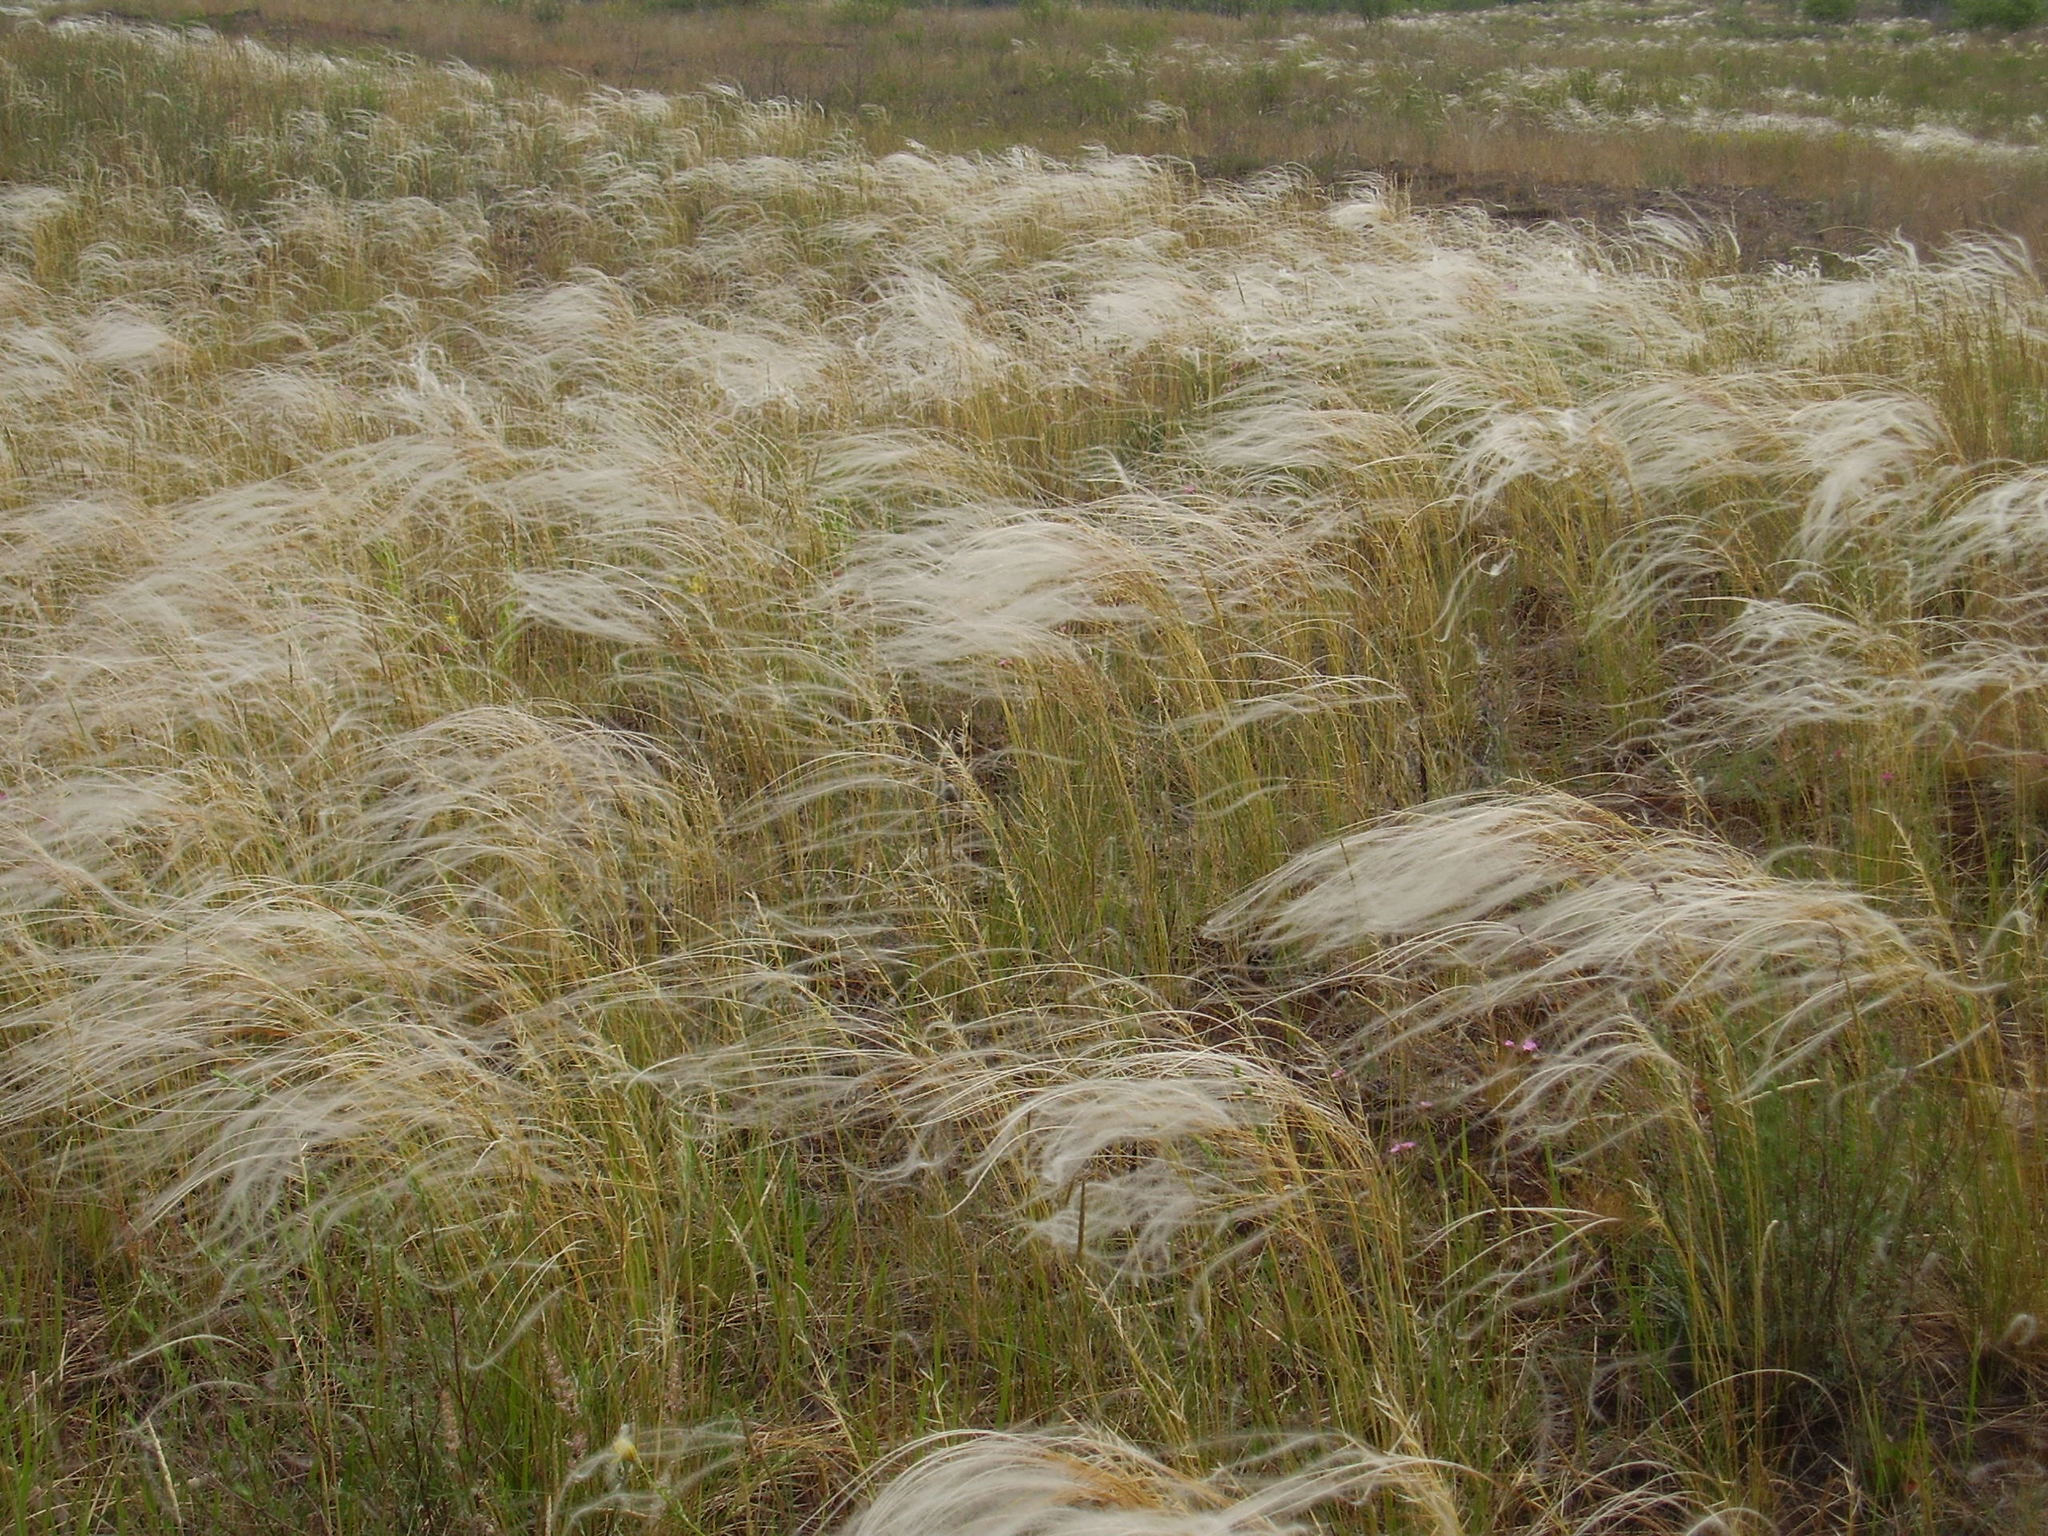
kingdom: Plantae
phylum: Tracheophyta
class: Liliopsida
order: Poales
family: Poaceae
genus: Stipa
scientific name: Stipa borysthenica
